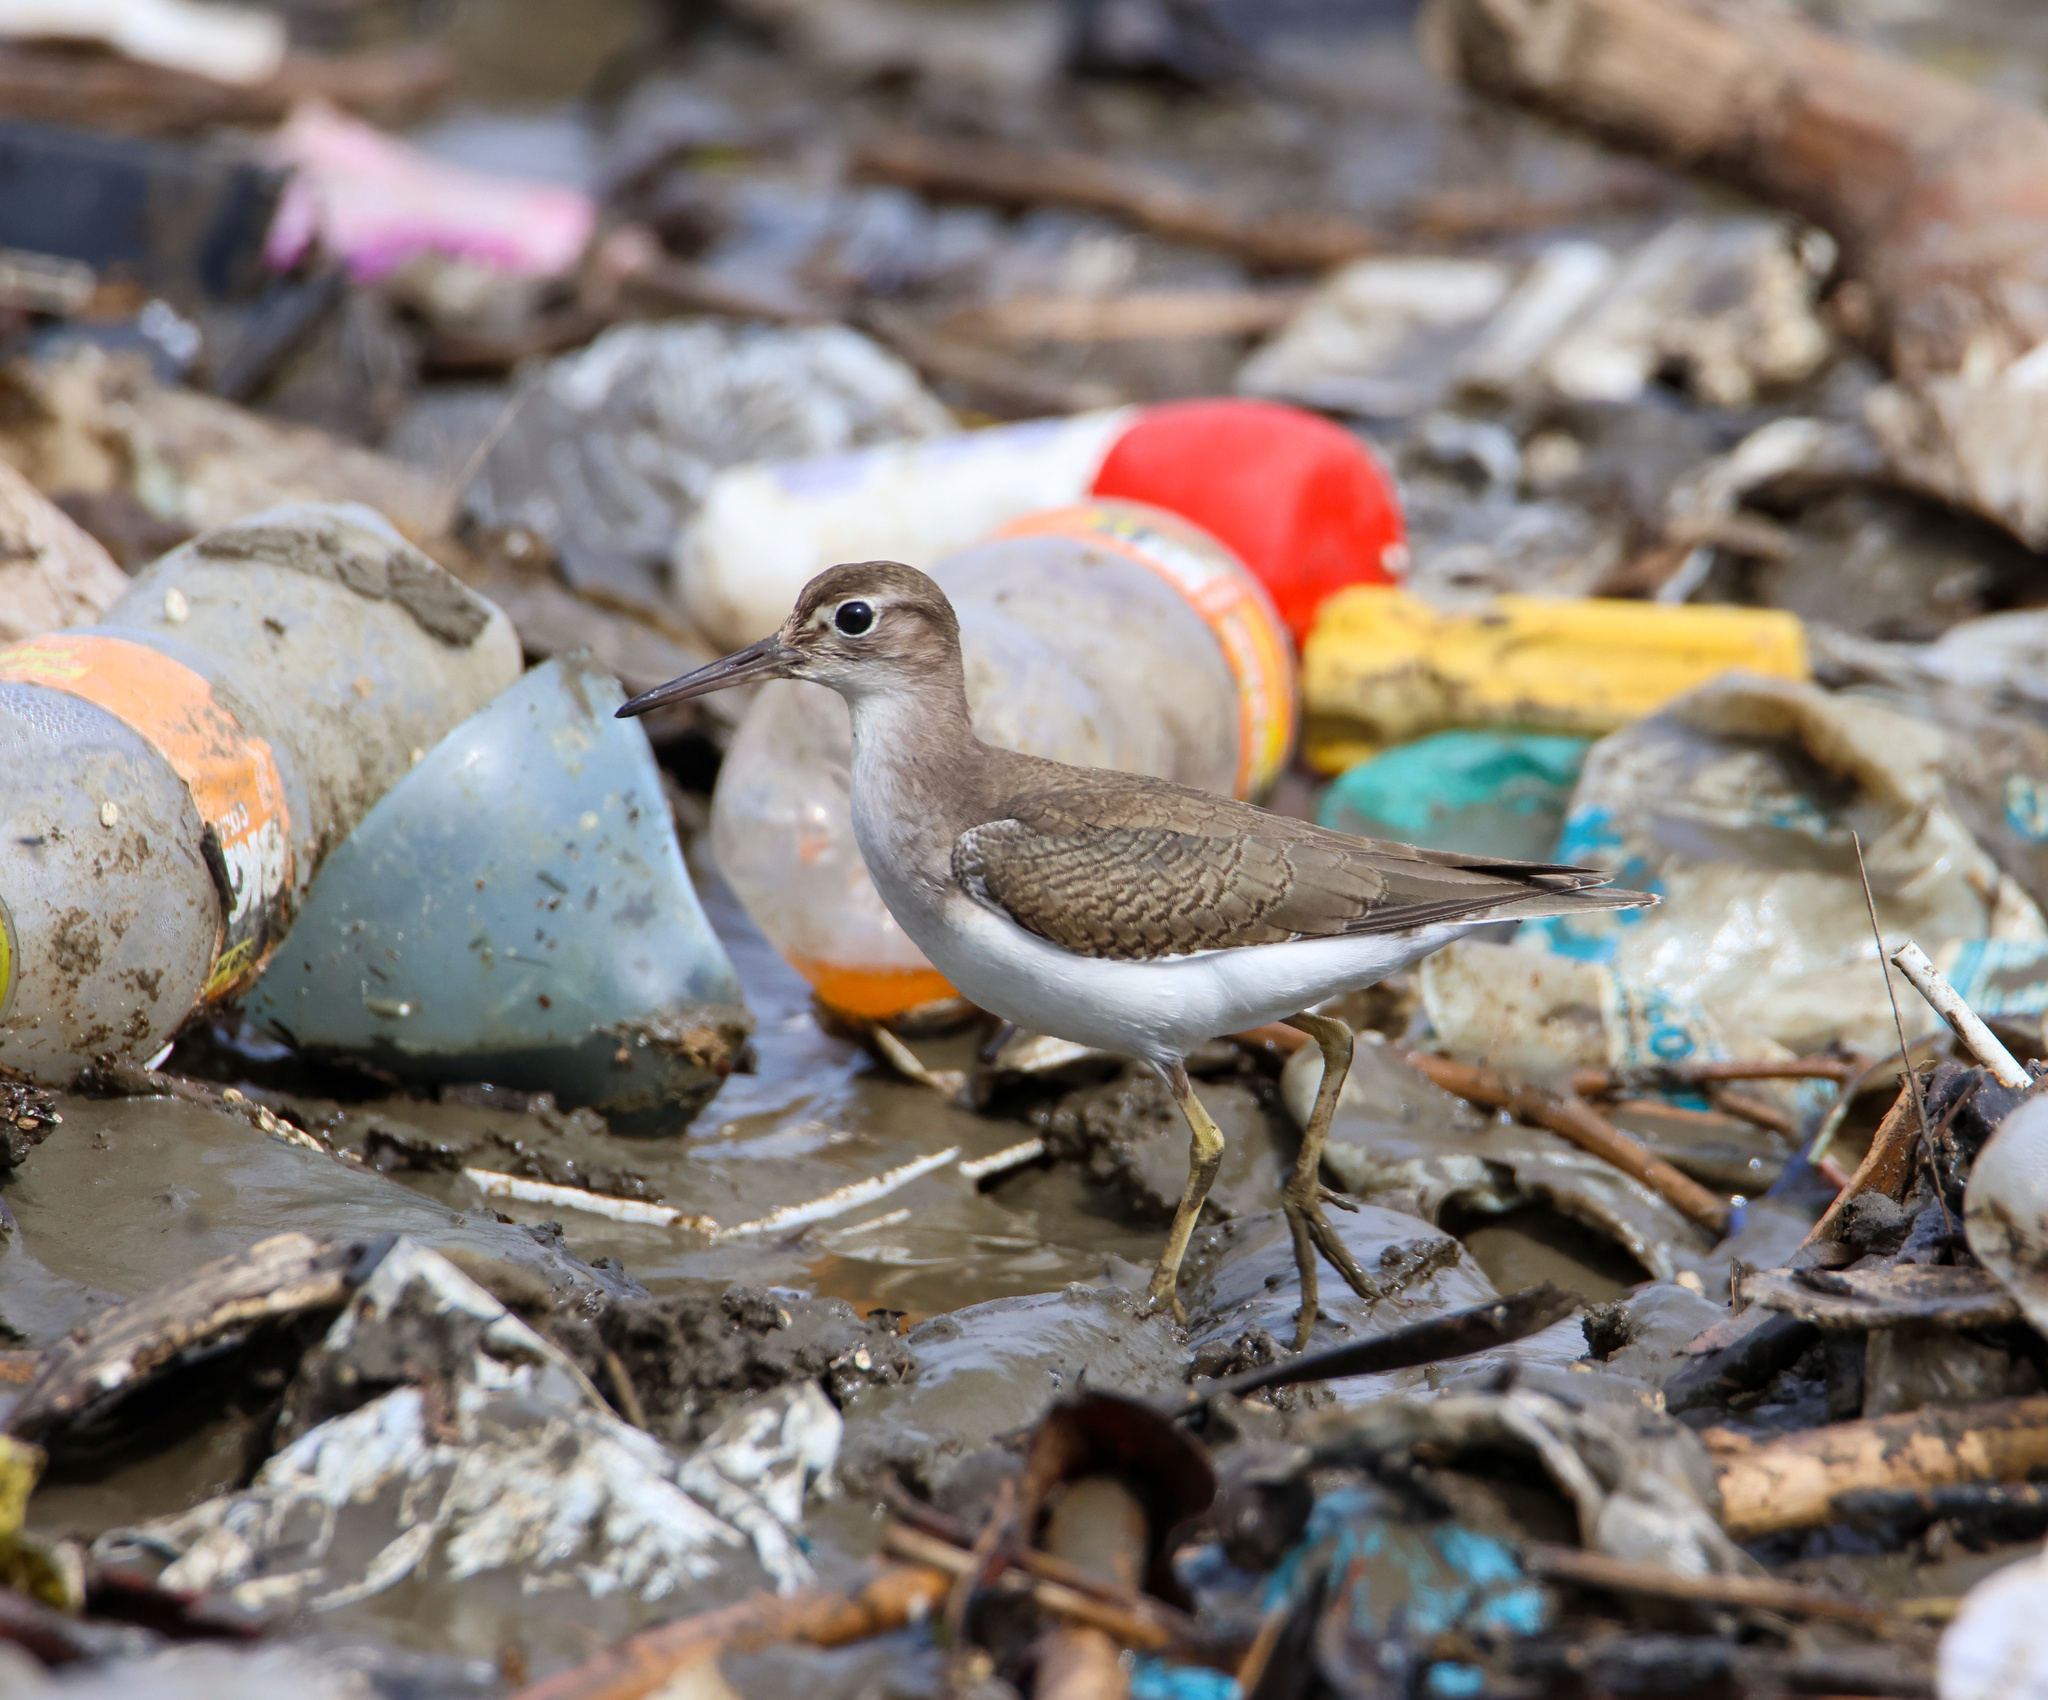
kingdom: Animalia
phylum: Chordata
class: Aves
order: Charadriiformes
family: Scolopacidae
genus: Actitis
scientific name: Actitis macularius
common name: Spotted sandpiper
